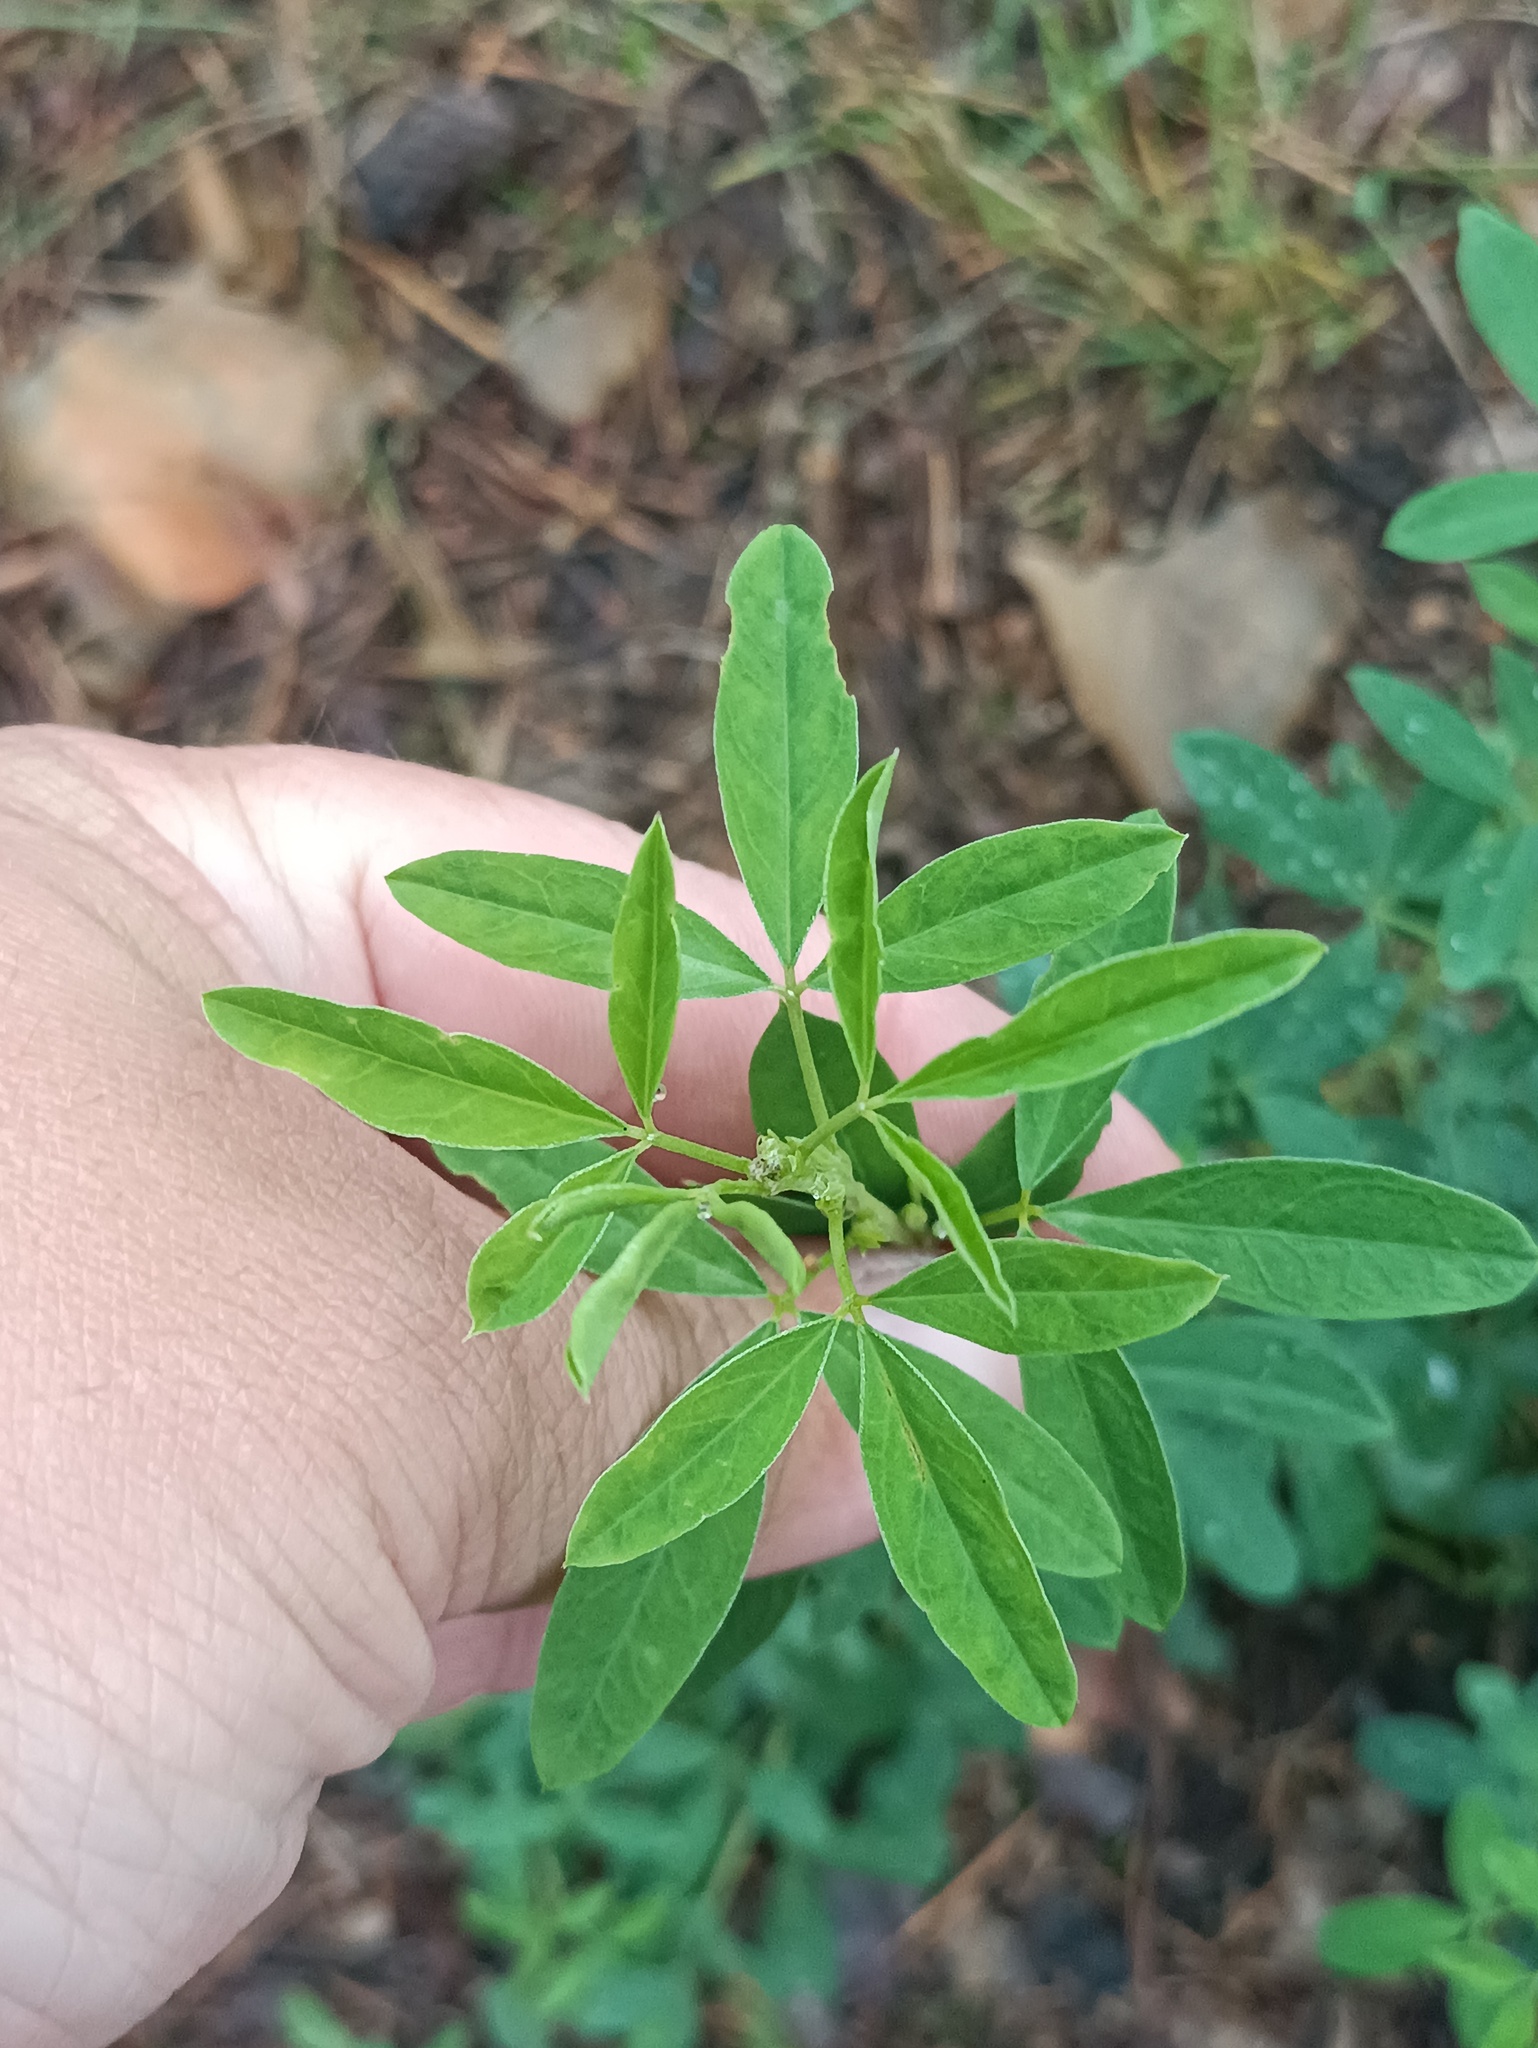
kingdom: Plantae
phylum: Tracheophyta
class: Magnoliopsida
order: Fabales
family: Fabaceae
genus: Chamaecytisus
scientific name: Chamaecytisus ruthenicus
